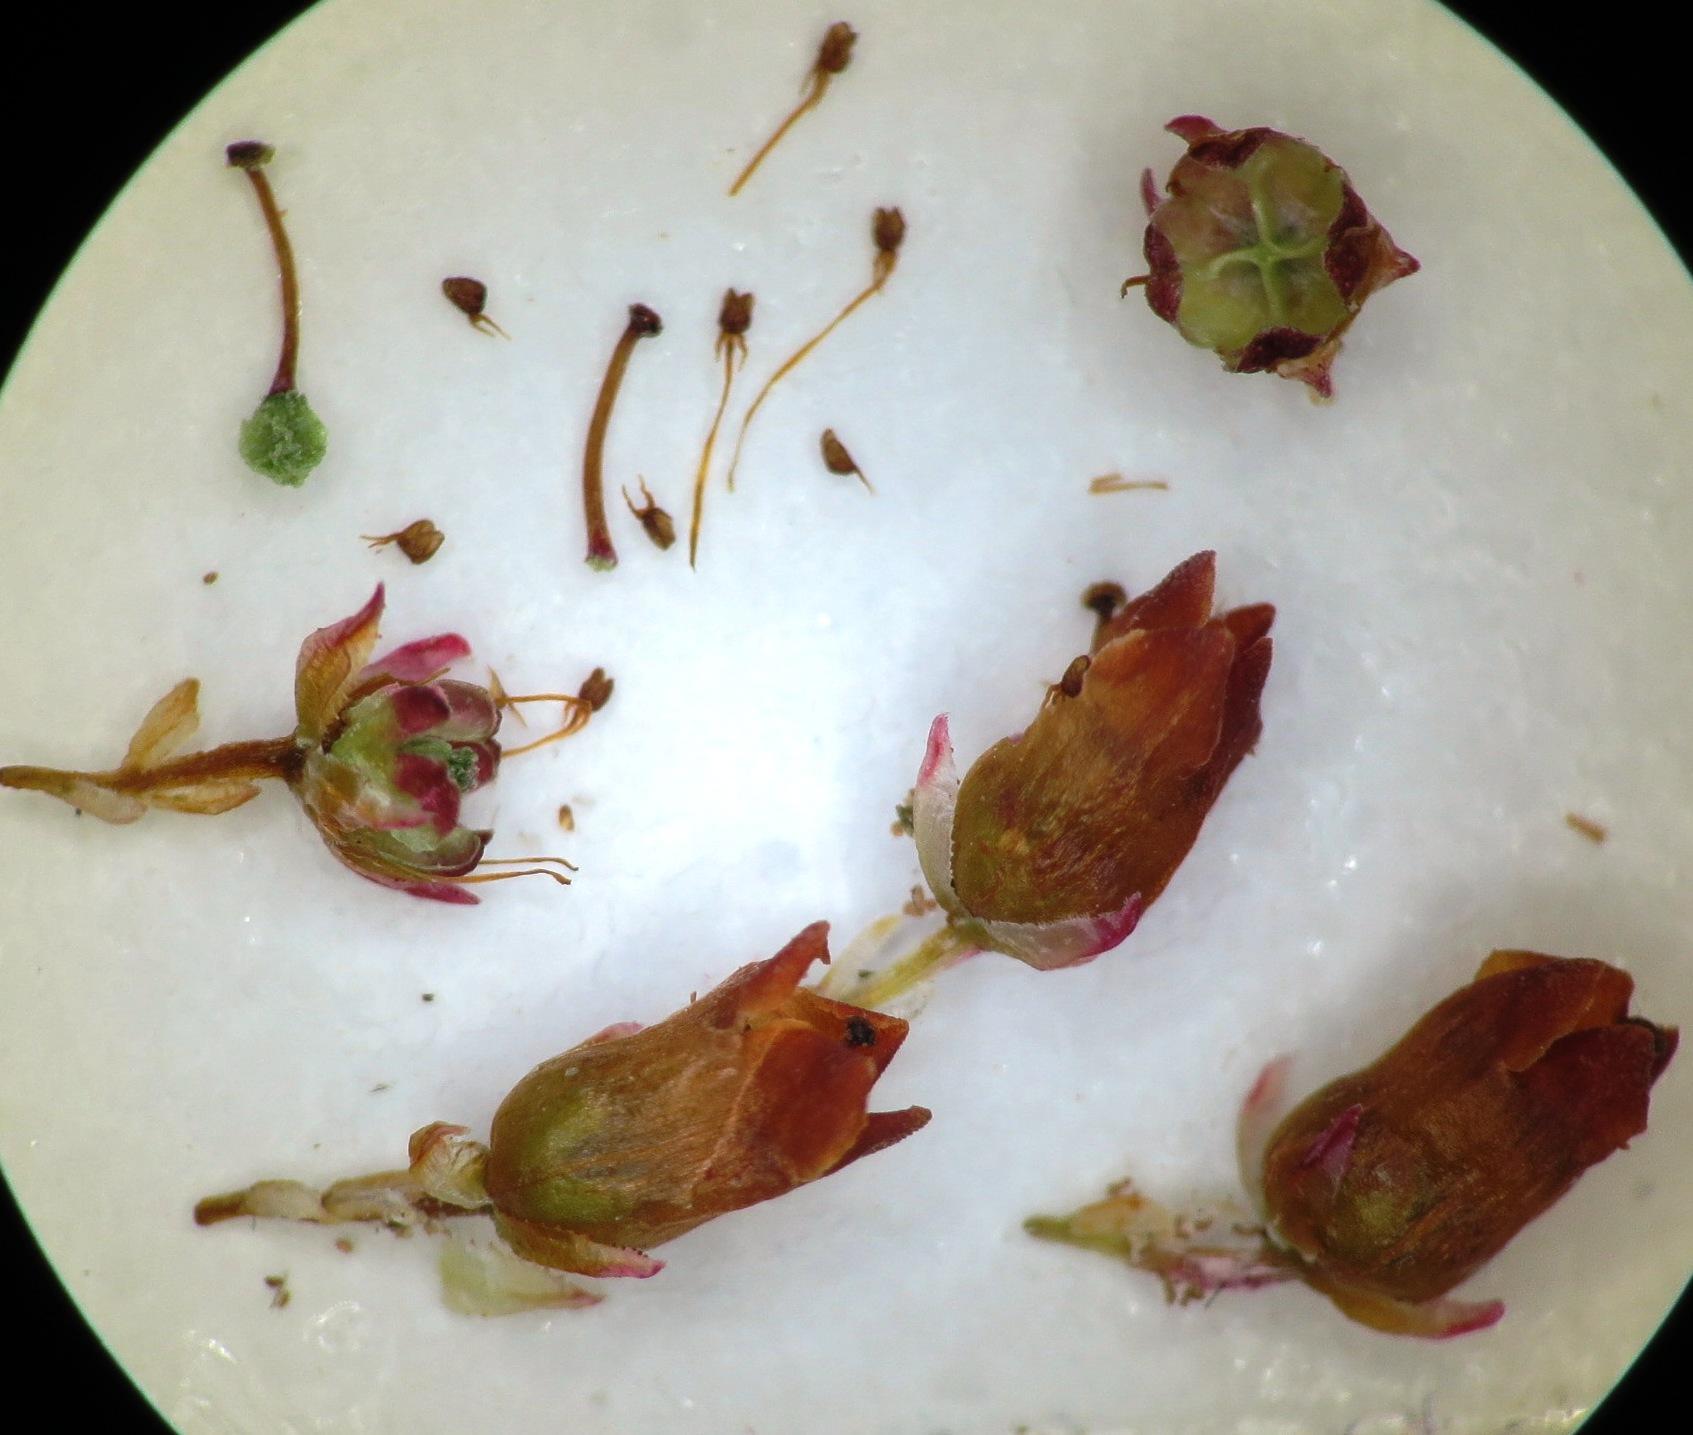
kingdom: Plantae
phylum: Tracheophyta
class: Magnoliopsida
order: Ericales
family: Ericaceae
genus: Erica
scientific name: Erica dodii
